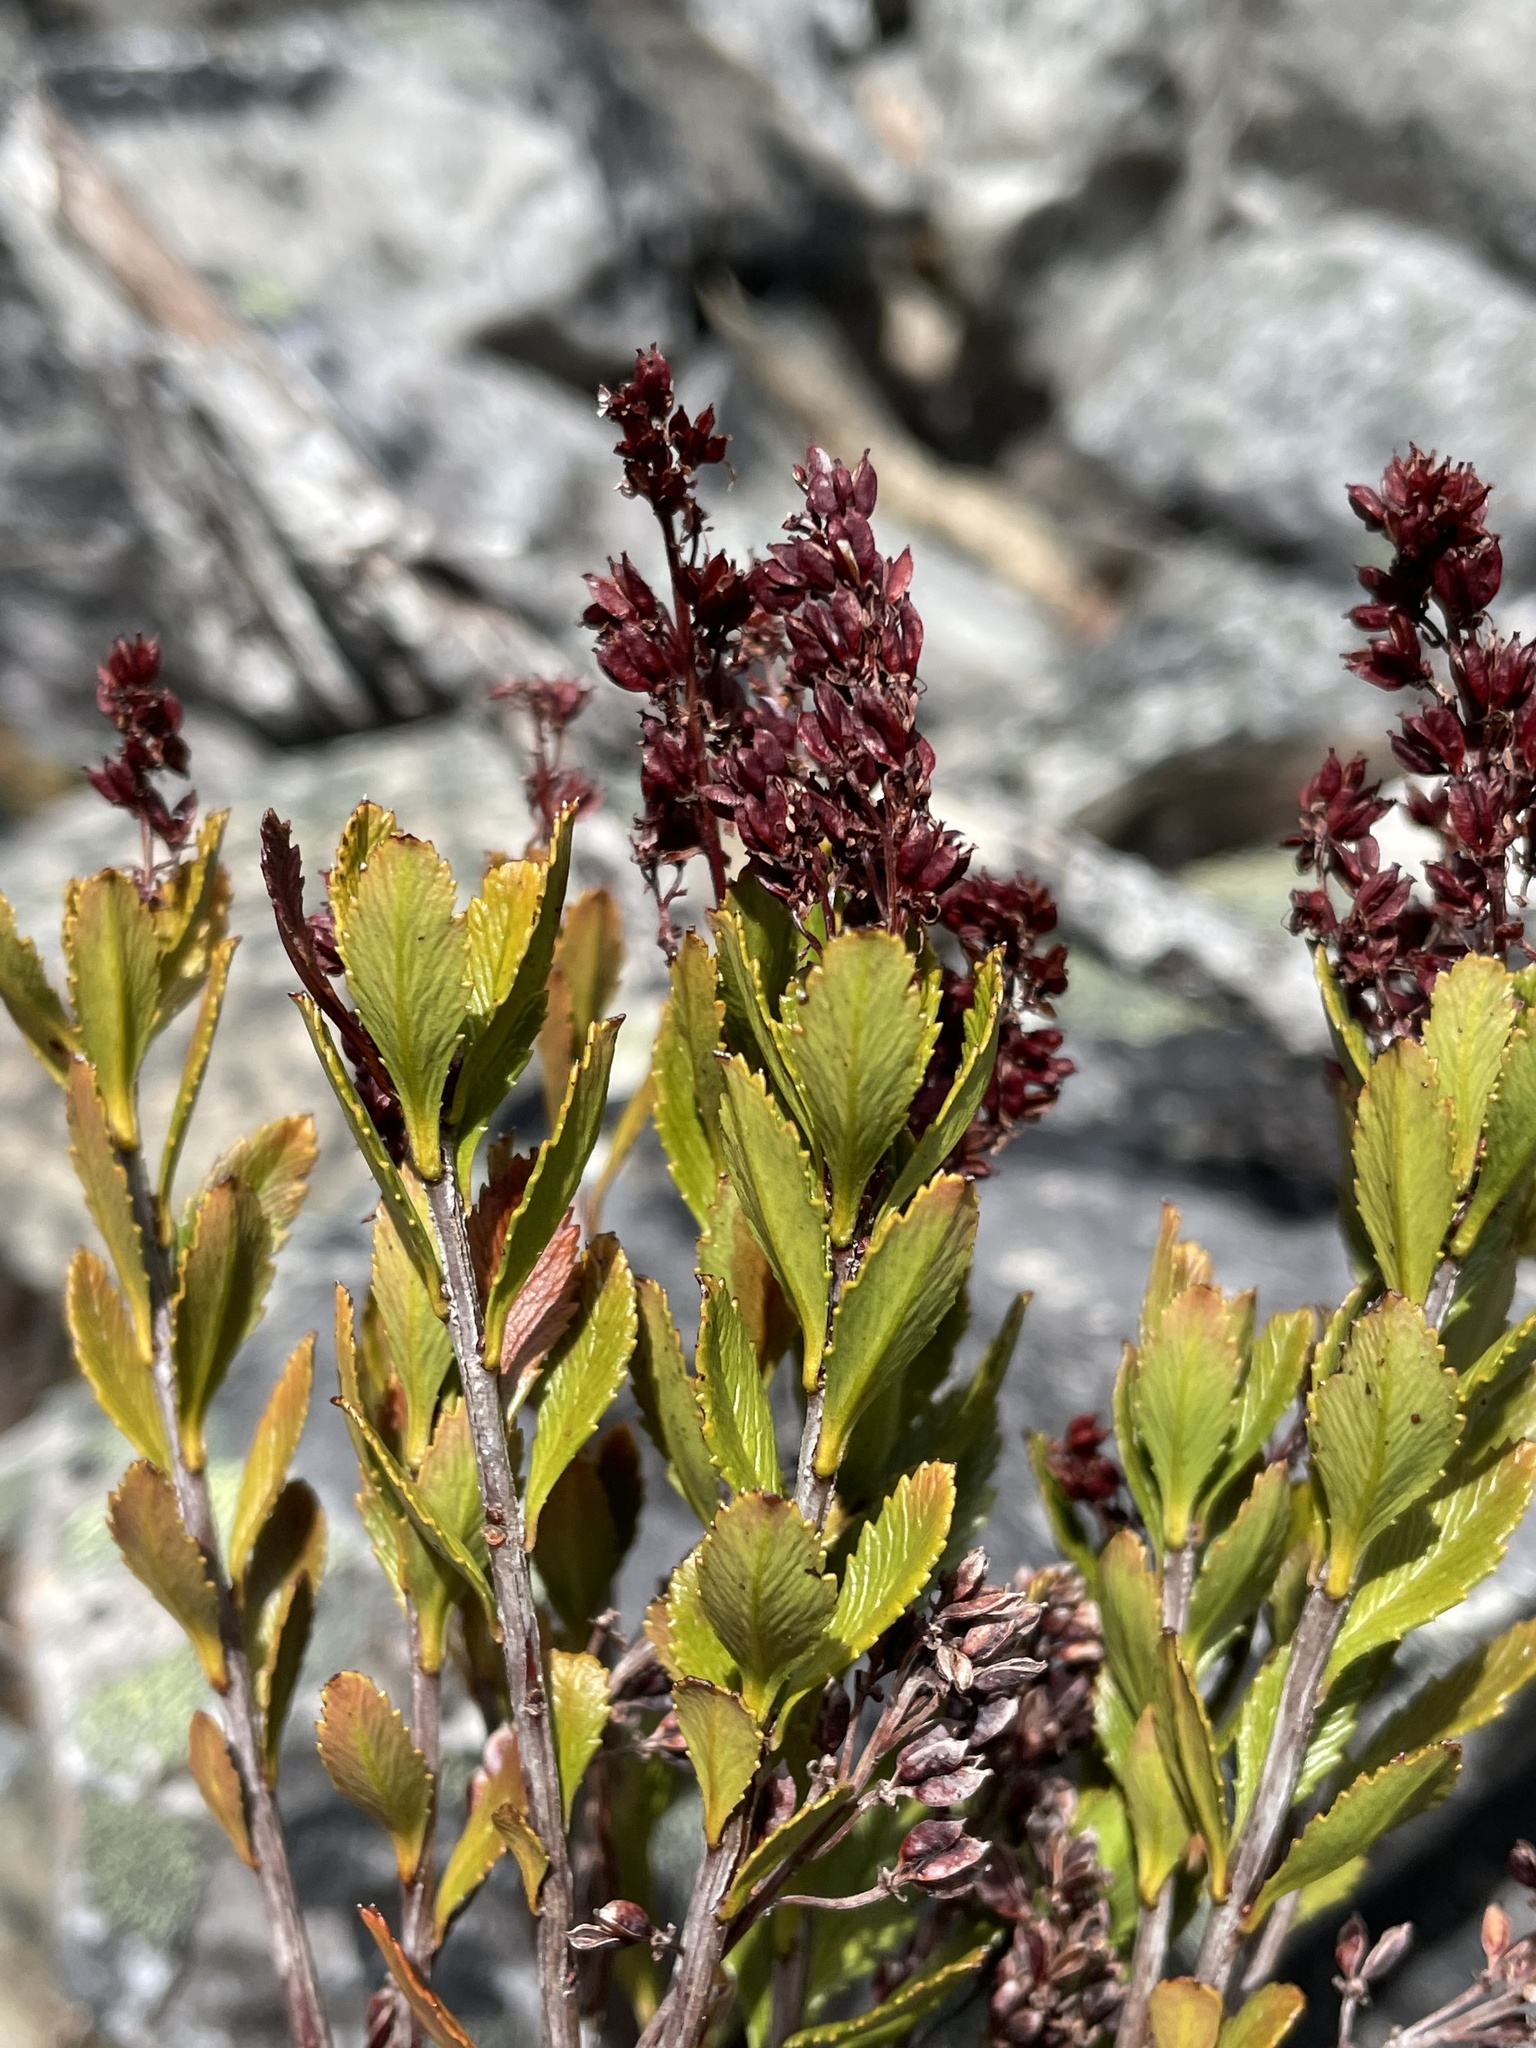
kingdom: Plantae
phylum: Tracheophyta
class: Magnoliopsida
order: Saxifragales
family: Tetracarpaeaceae
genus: Tetracarpaea
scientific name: Tetracarpaea tasmanica
